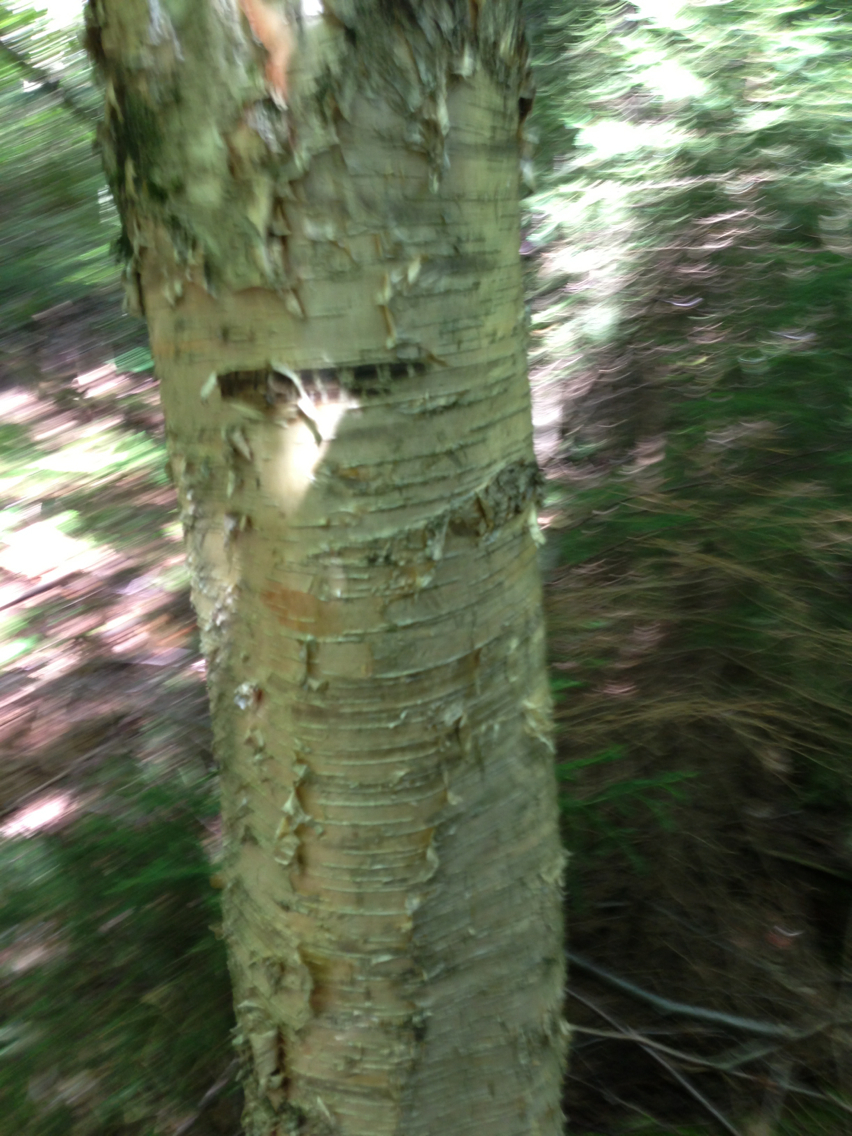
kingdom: Plantae
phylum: Tracheophyta
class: Magnoliopsida
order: Fagales
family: Betulaceae
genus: Betula
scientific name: Betula alleghaniensis
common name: Yellow birch
